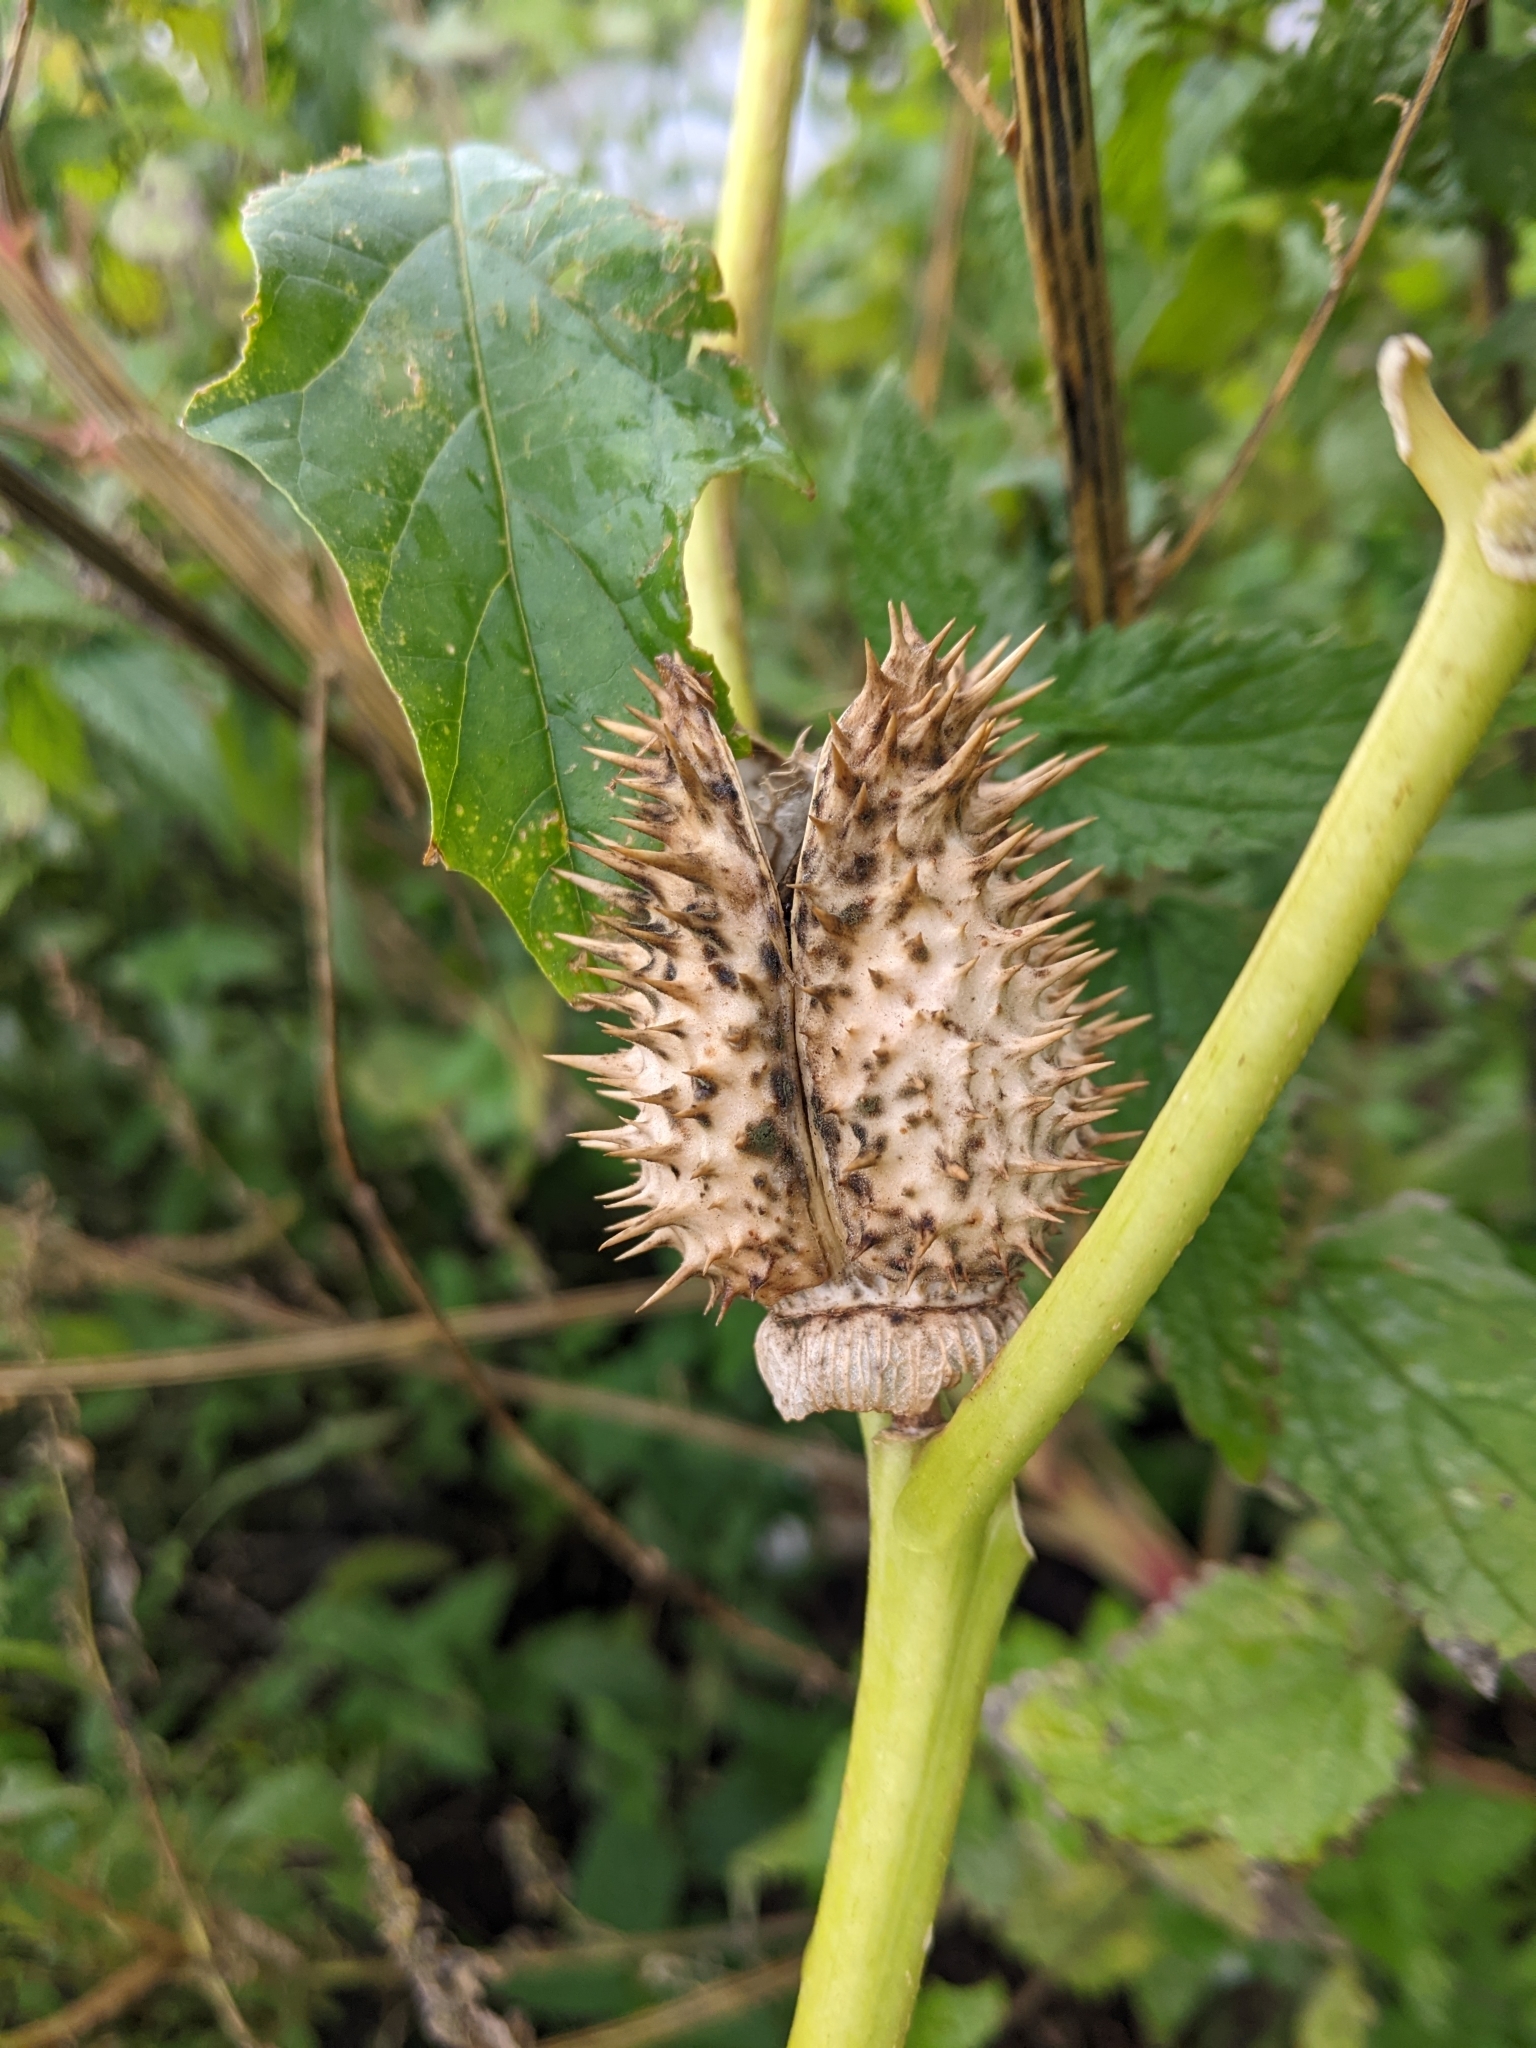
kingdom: Plantae
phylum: Tracheophyta
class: Magnoliopsida
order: Solanales
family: Solanaceae
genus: Datura
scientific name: Datura stramonium
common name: Thorn-apple
